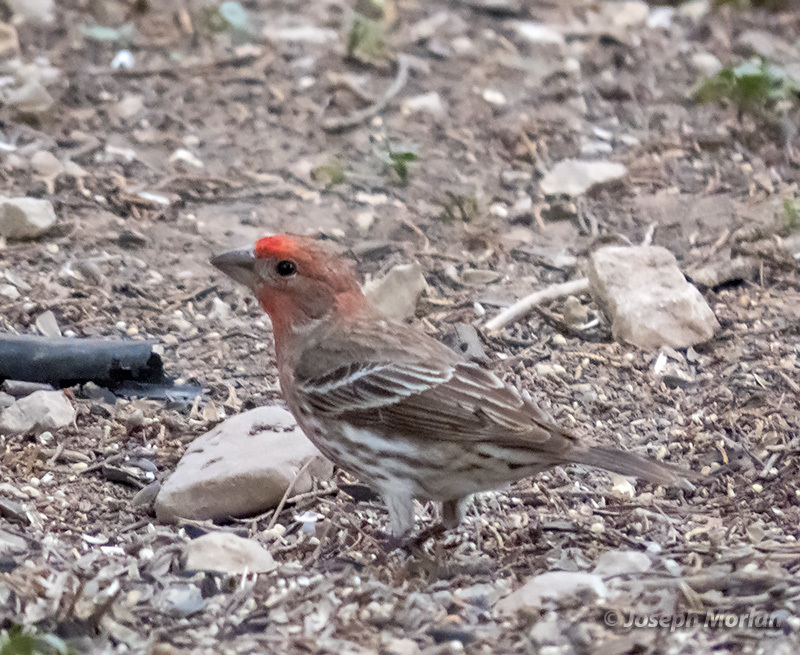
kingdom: Animalia
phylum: Chordata
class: Aves
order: Passeriformes
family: Fringillidae
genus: Haemorhous
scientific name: Haemorhous mexicanus
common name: House finch
